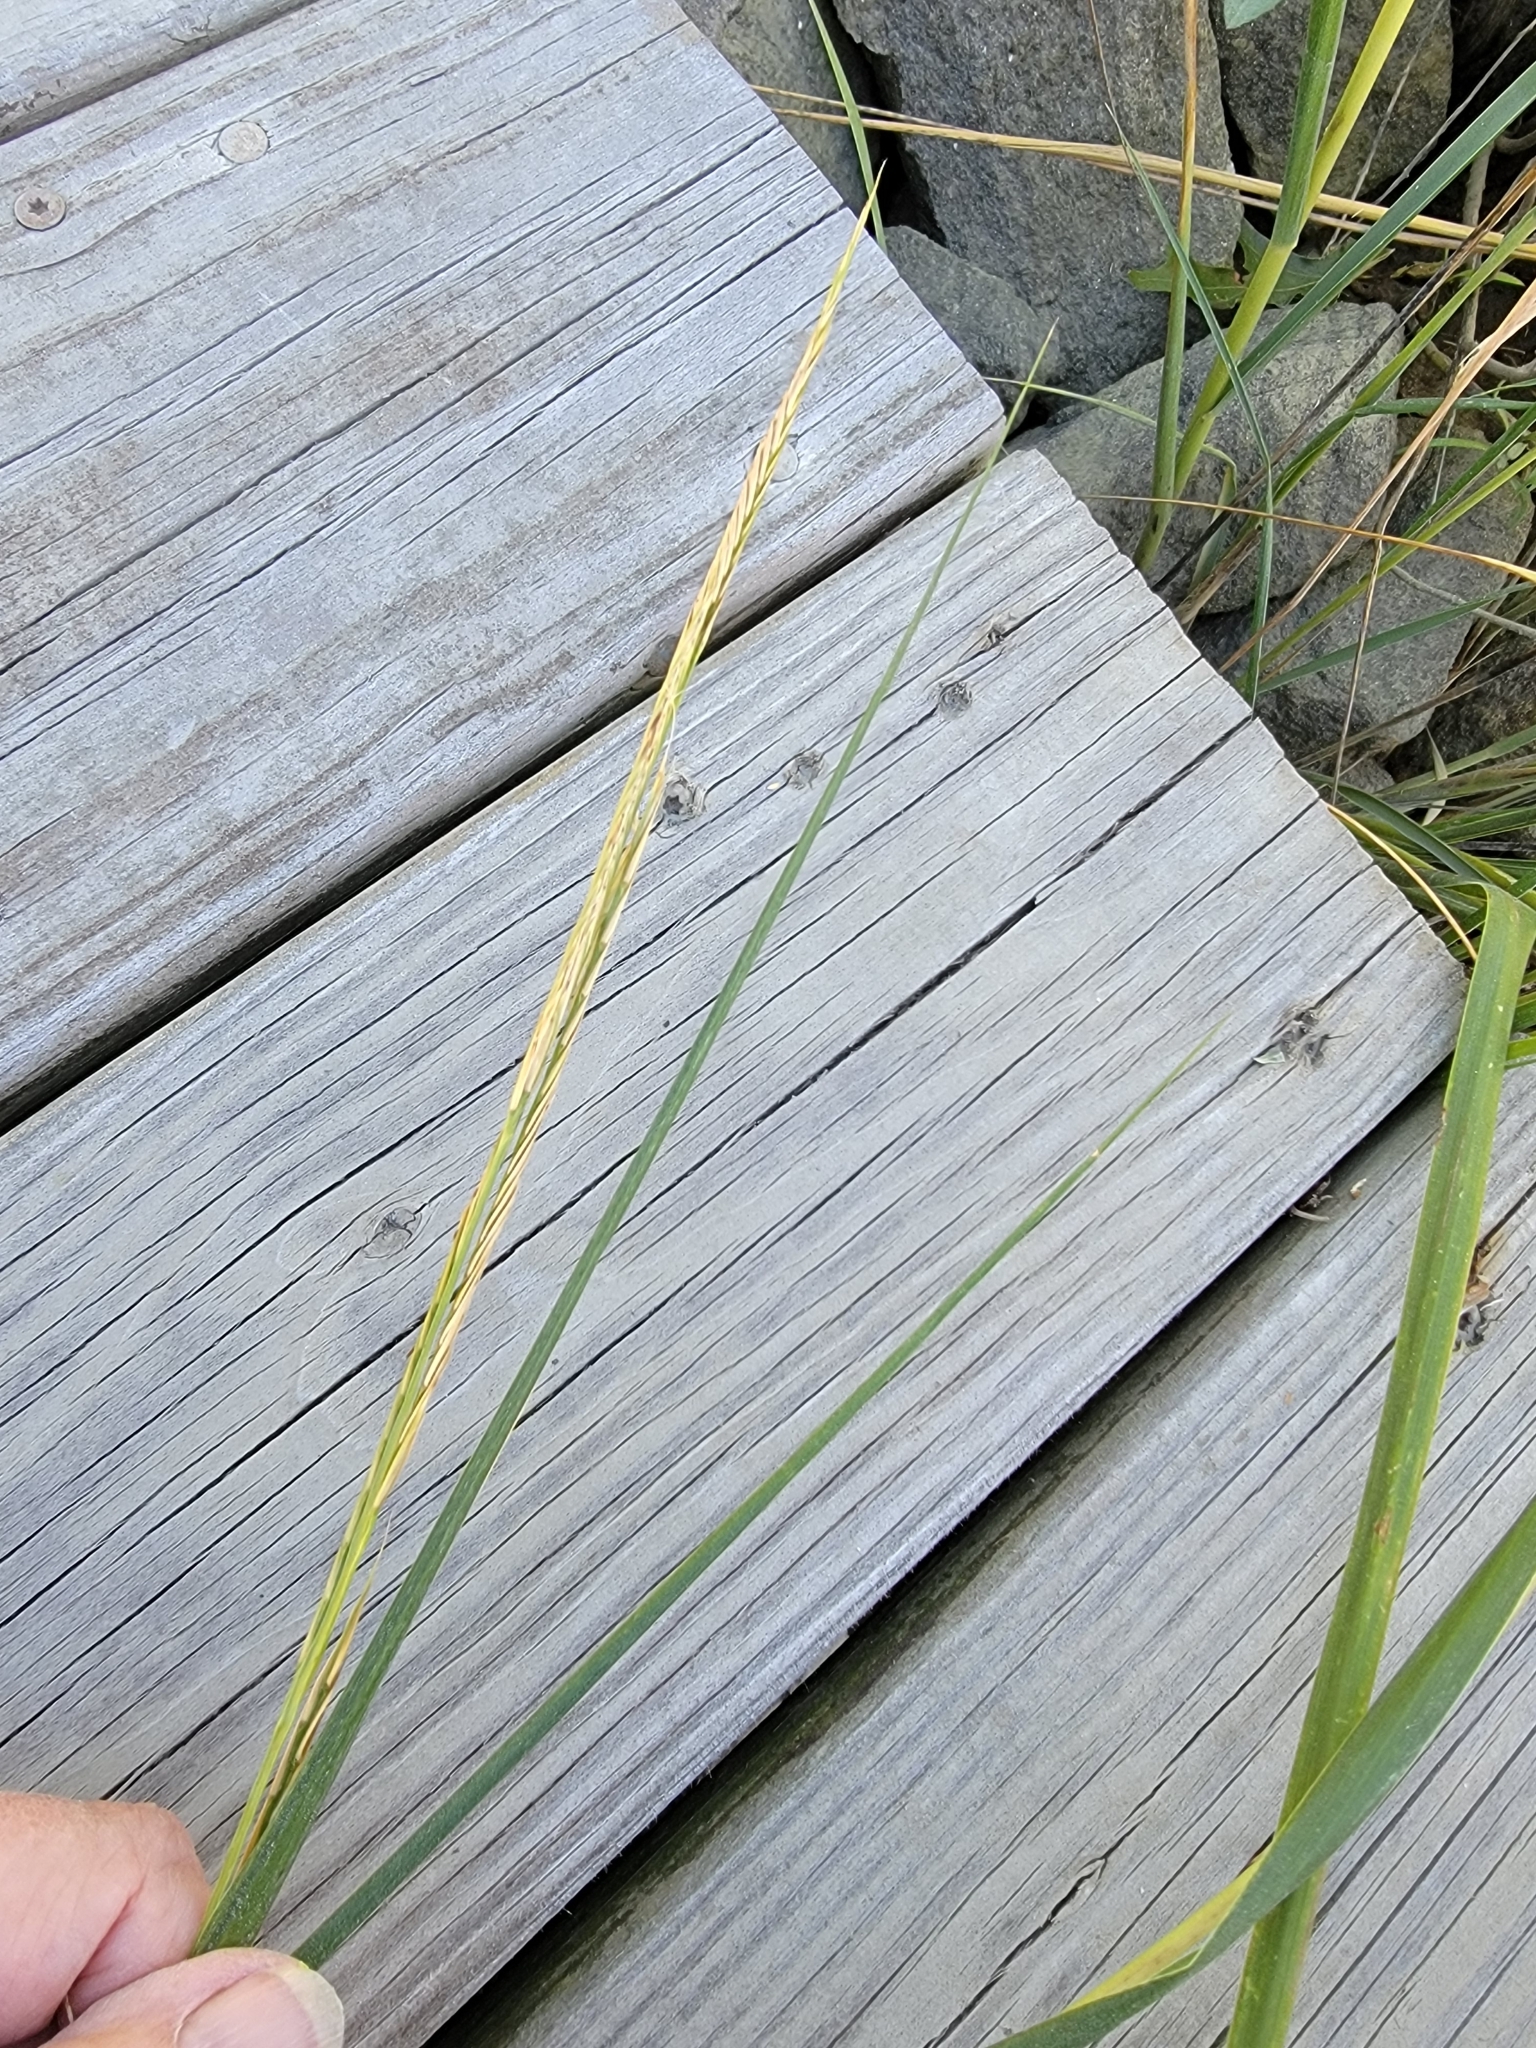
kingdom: Plantae
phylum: Tracheophyta
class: Liliopsida
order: Poales
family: Poaceae
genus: Sporobolus
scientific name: Sporobolus alterniflorus
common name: Atlantic cordgrass
